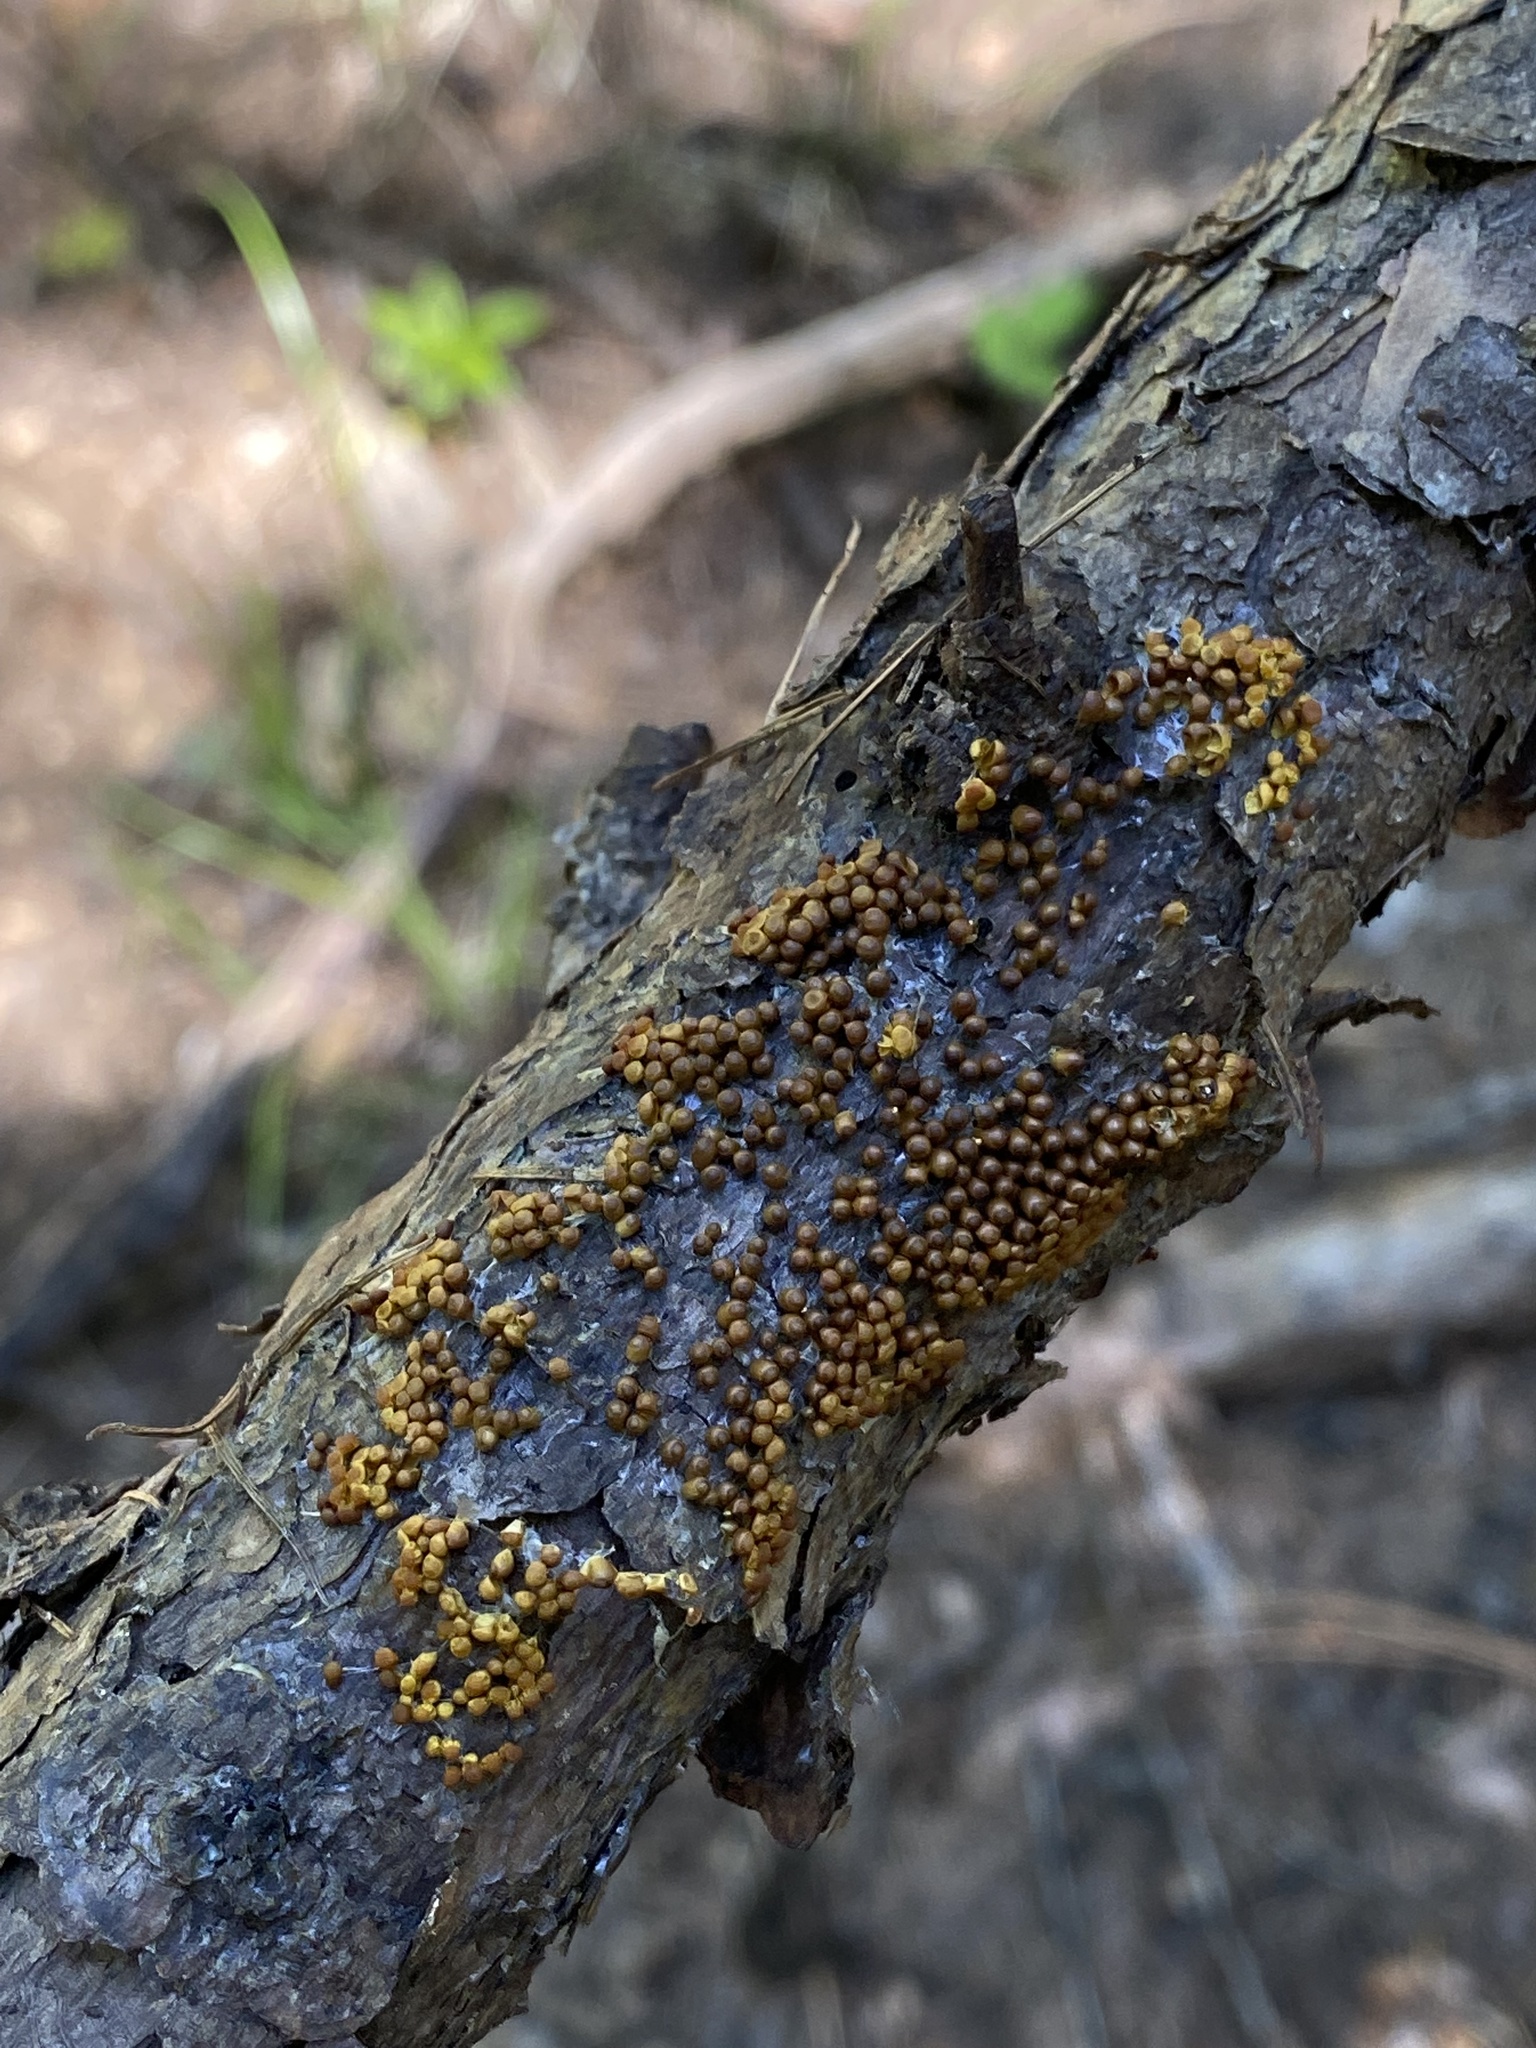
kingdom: Protozoa
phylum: Mycetozoa
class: Myxomycetes
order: Physarales
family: Physaraceae
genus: Leocarpus
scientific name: Leocarpus fragilis
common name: Insect-egg slime
